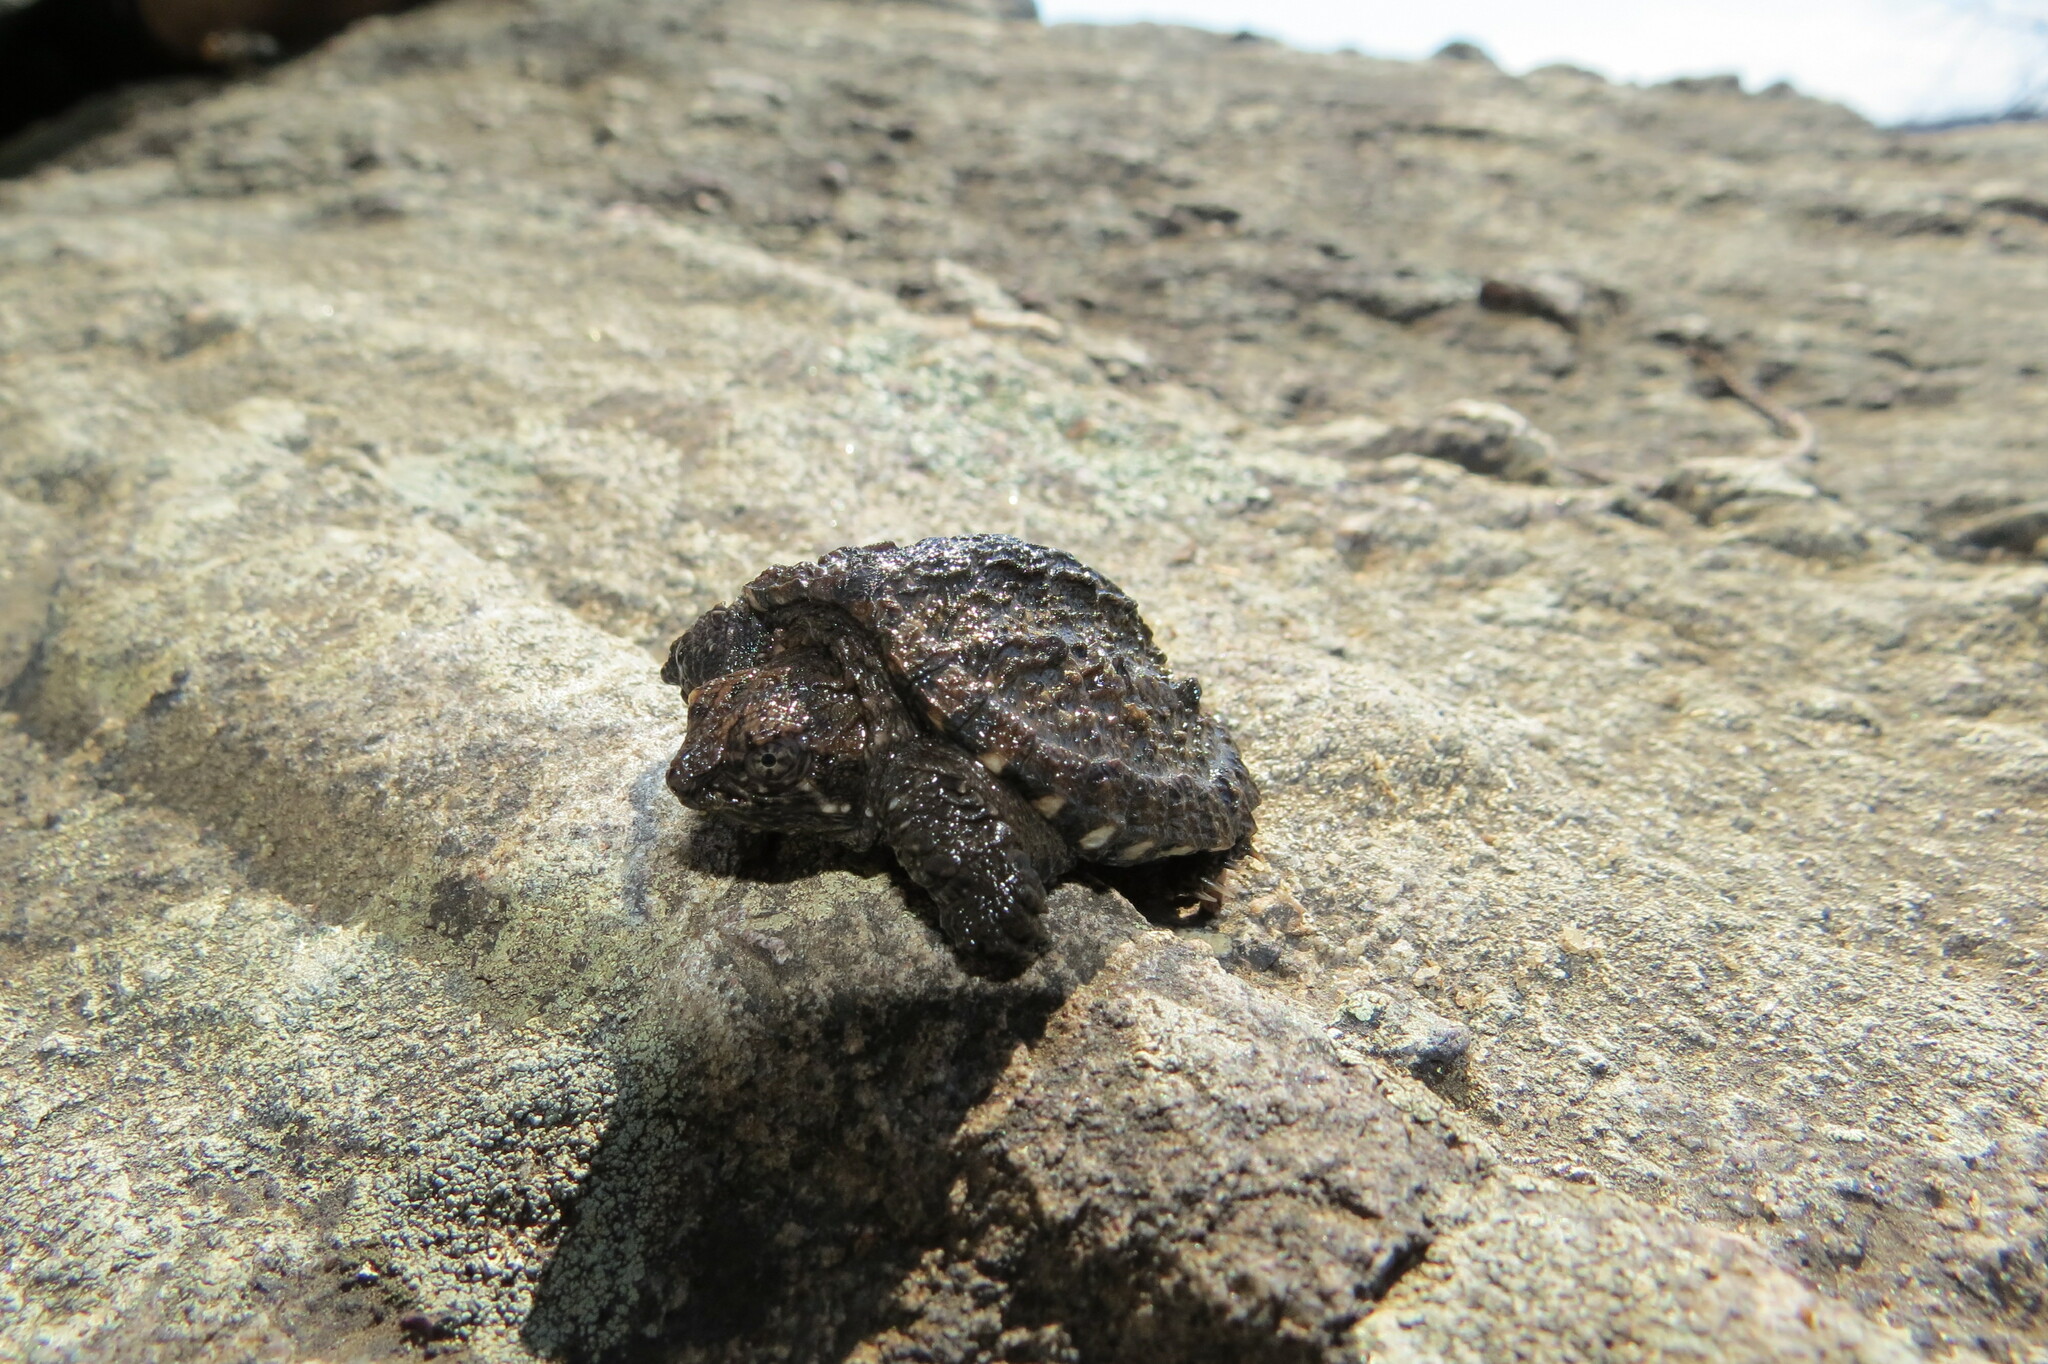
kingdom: Animalia
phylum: Chordata
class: Testudines
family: Chelydridae
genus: Chelydra
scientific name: Chelydra serpentina
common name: Common snapping turtle
